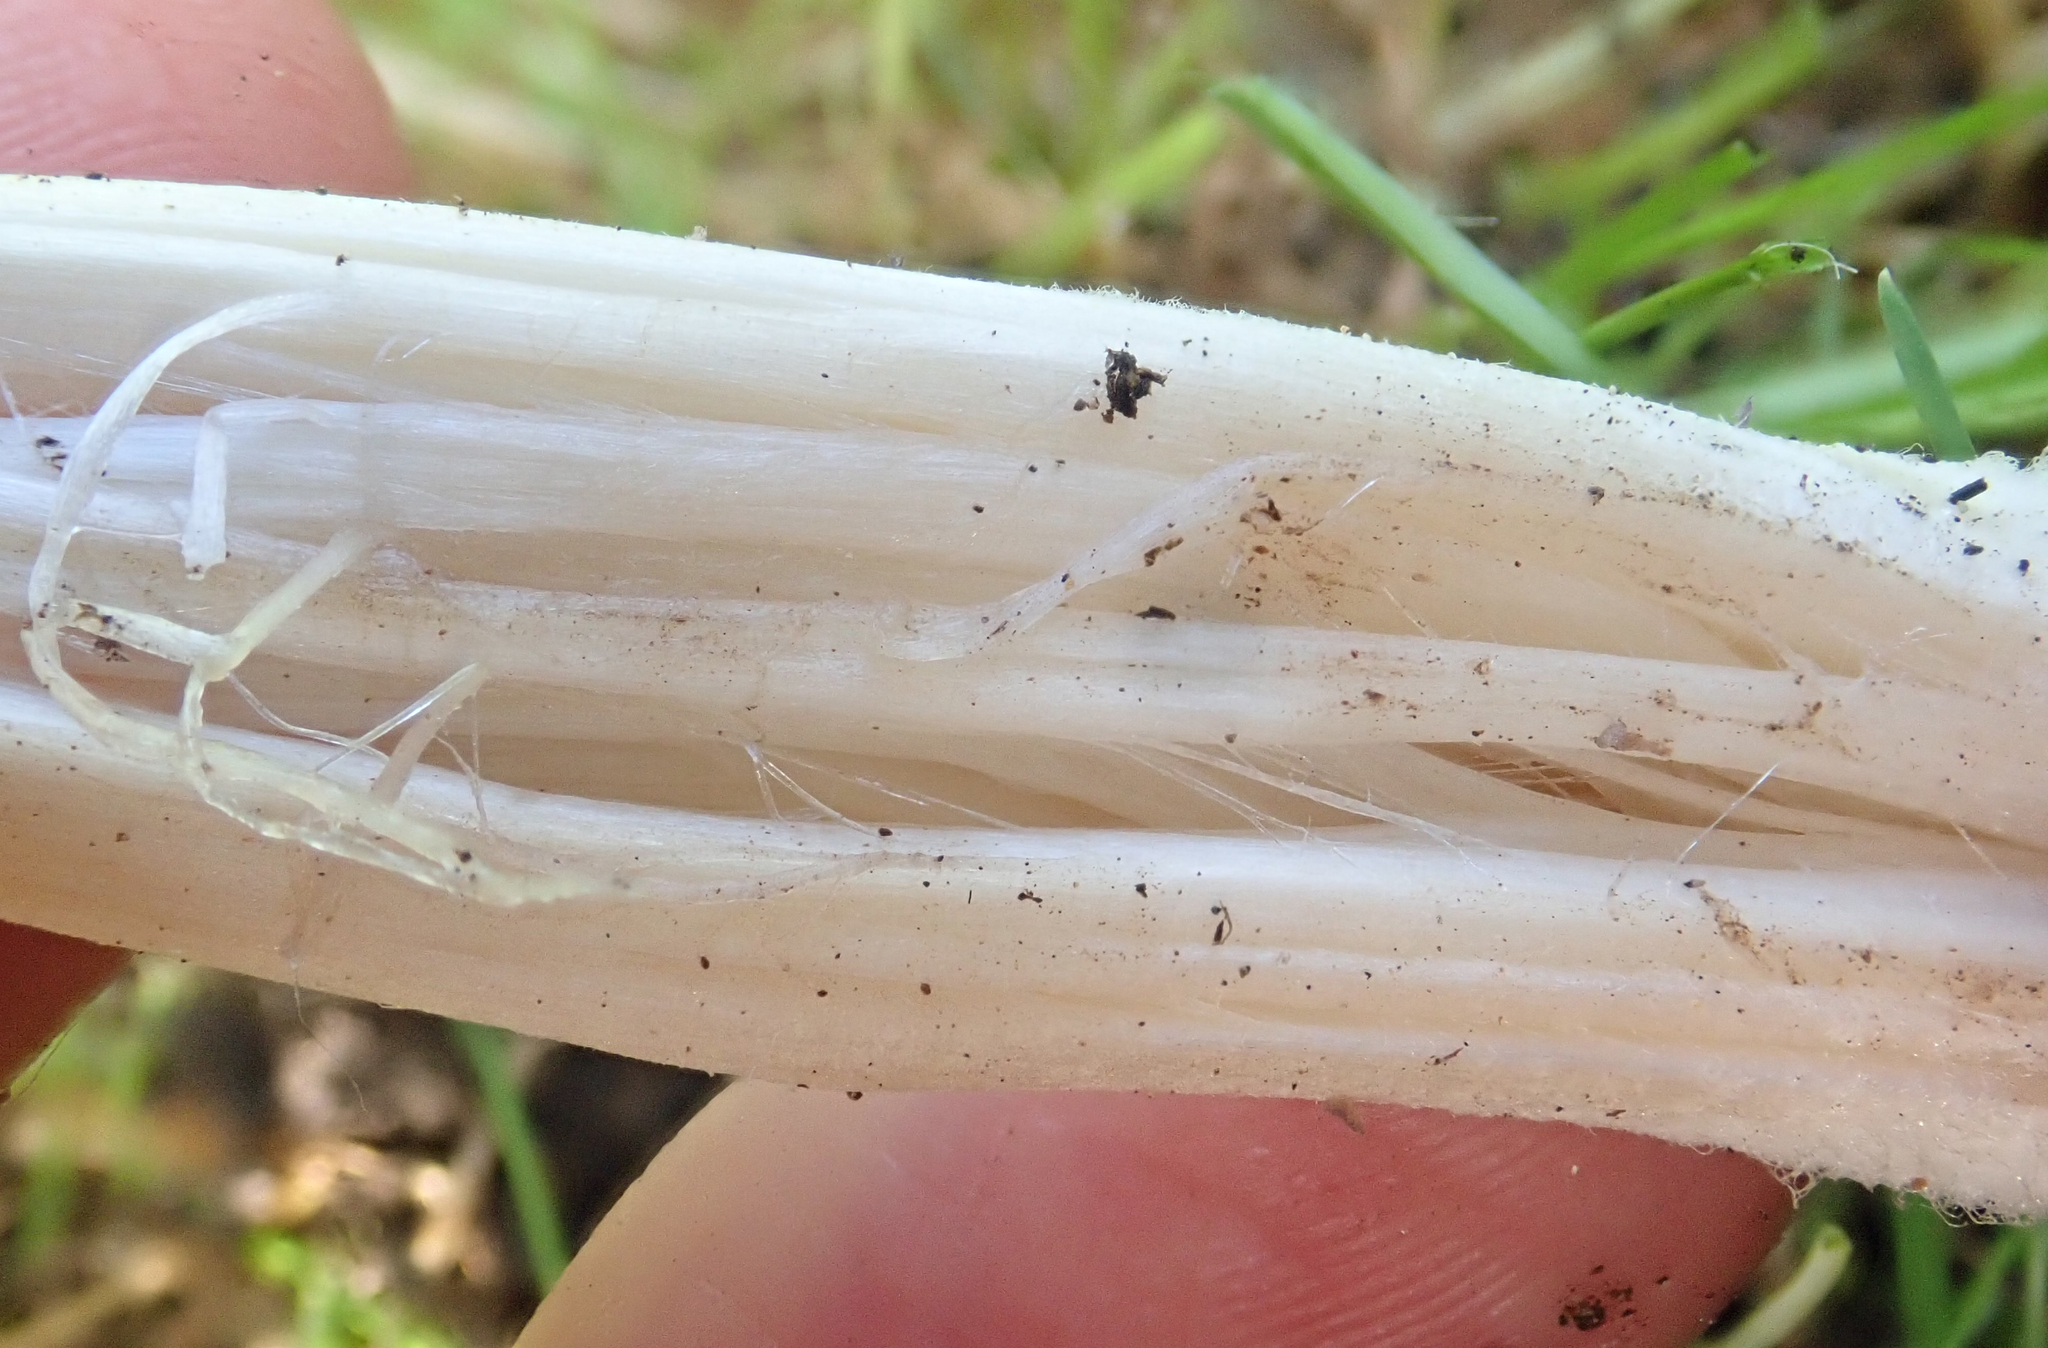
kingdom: Fungi
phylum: Basidiomycota
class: Agaricomycetes
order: Agaricales
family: Agaricaceae
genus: Leucoagaricus
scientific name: Leucoagaricus leucothites
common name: White dapperling
